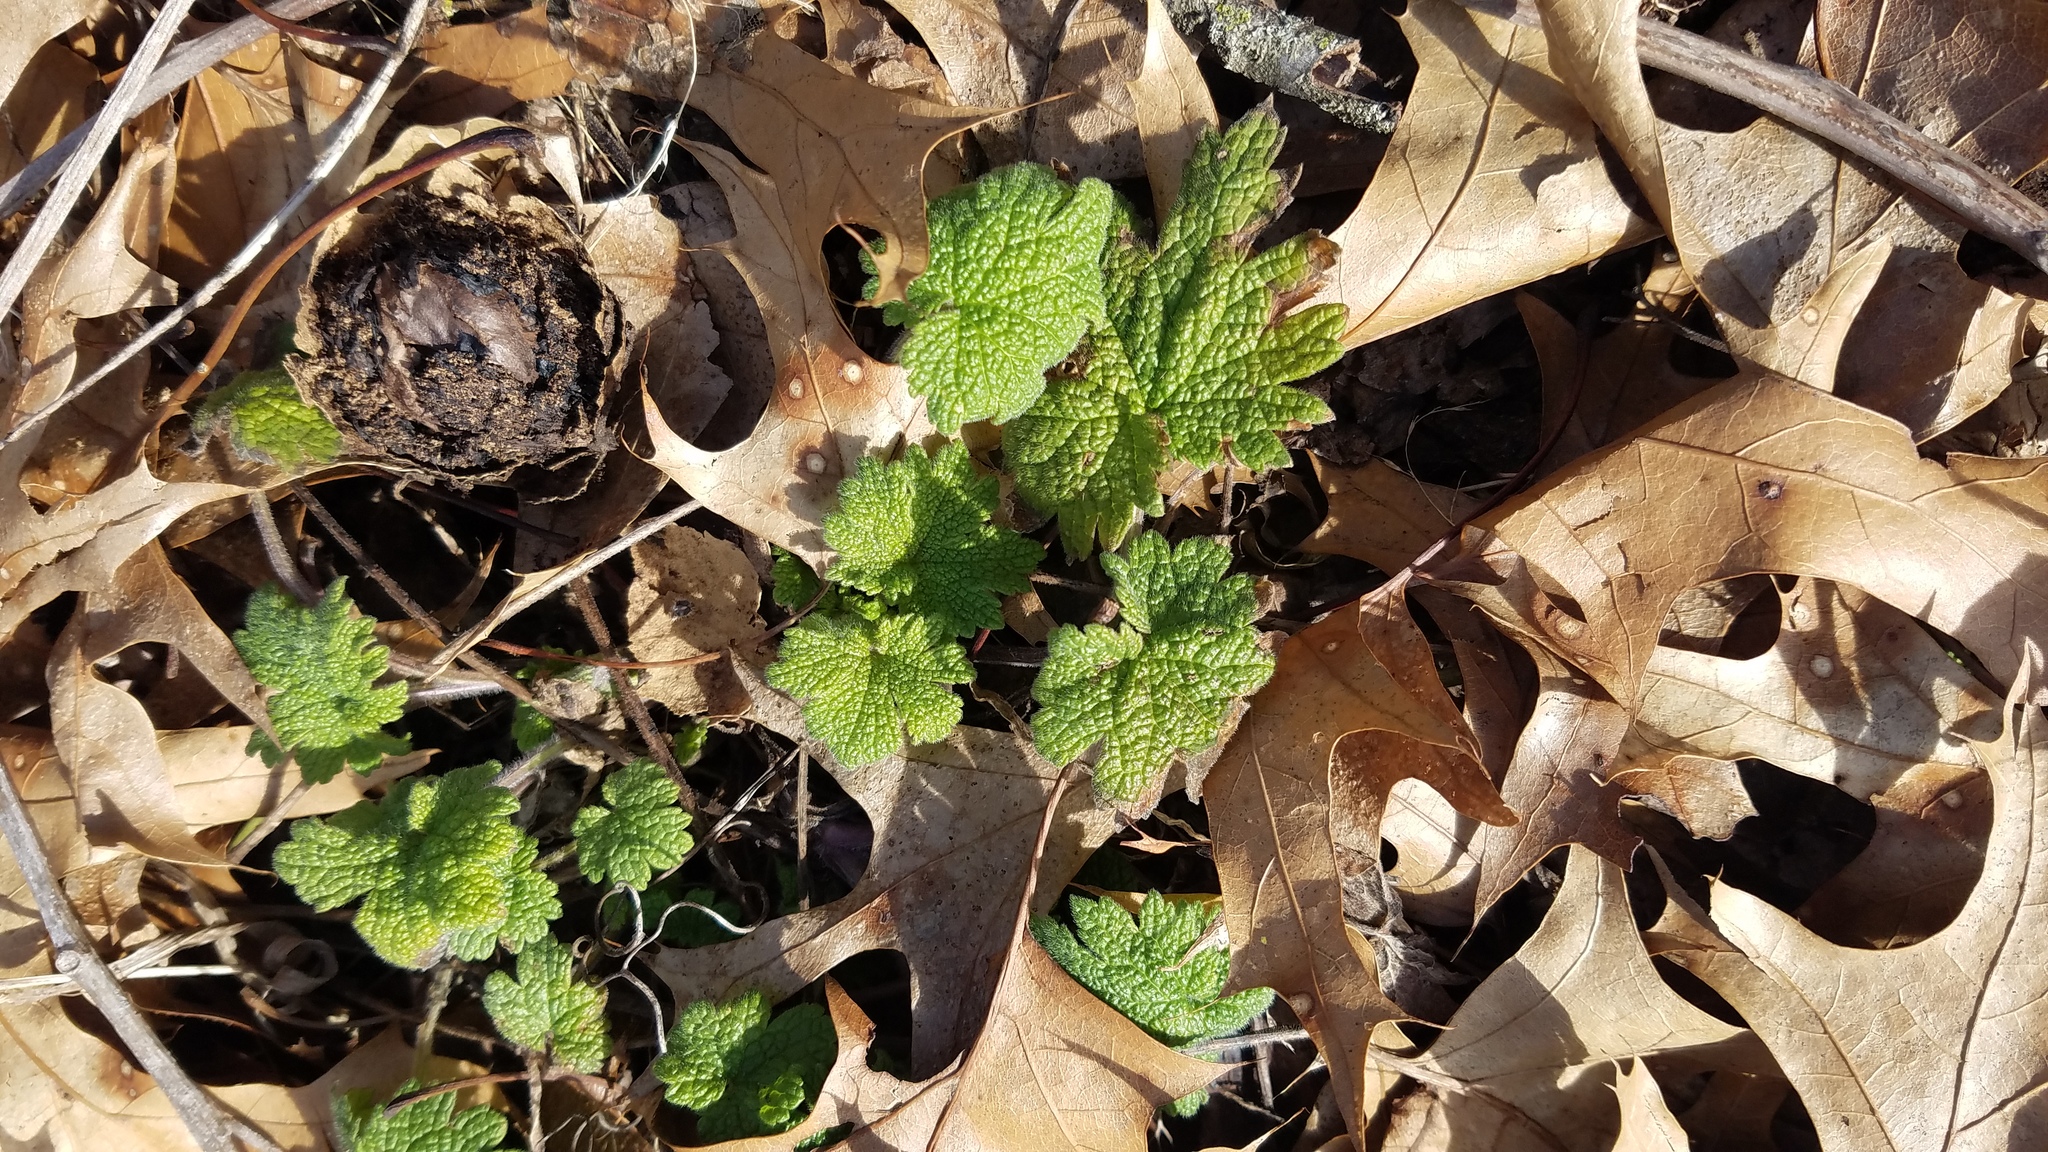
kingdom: Plantae
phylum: Tracheophyta
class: Magnoliopsida
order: Lamiales
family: Lamiaceae
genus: Leonurus
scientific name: Leonurus cardiaca
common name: Motherwort
